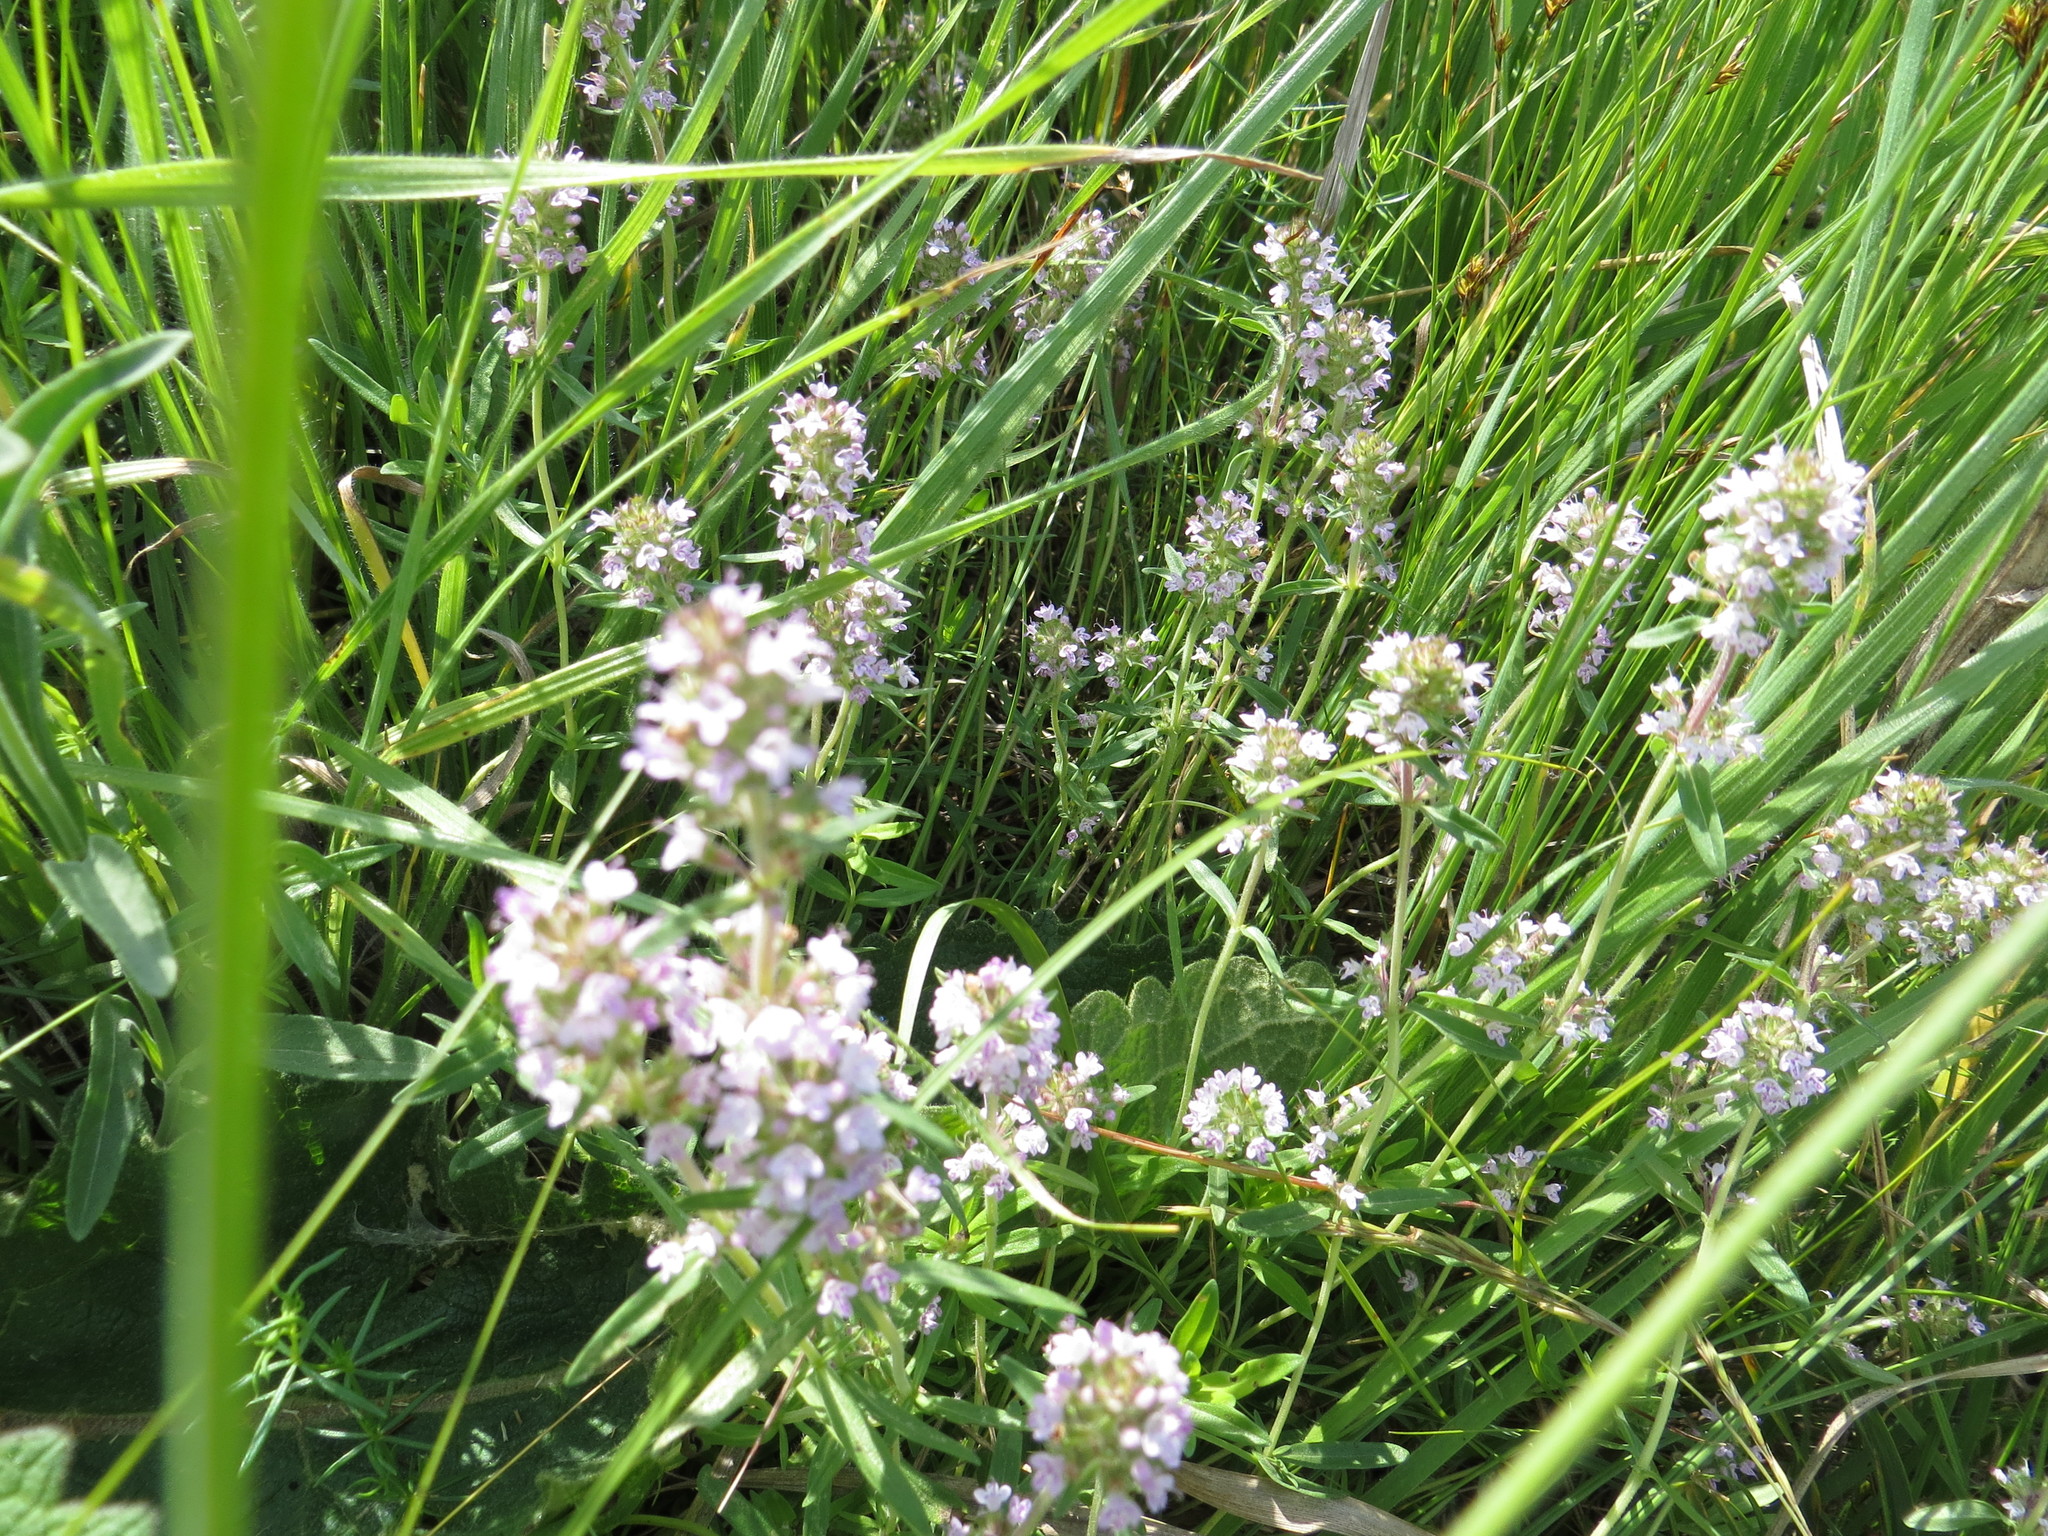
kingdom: Plantae
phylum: Tracheophyta
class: Magnoliopsida
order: Lamiales
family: Lamiaceae
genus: Thymus
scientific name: Thymus pannonicus
